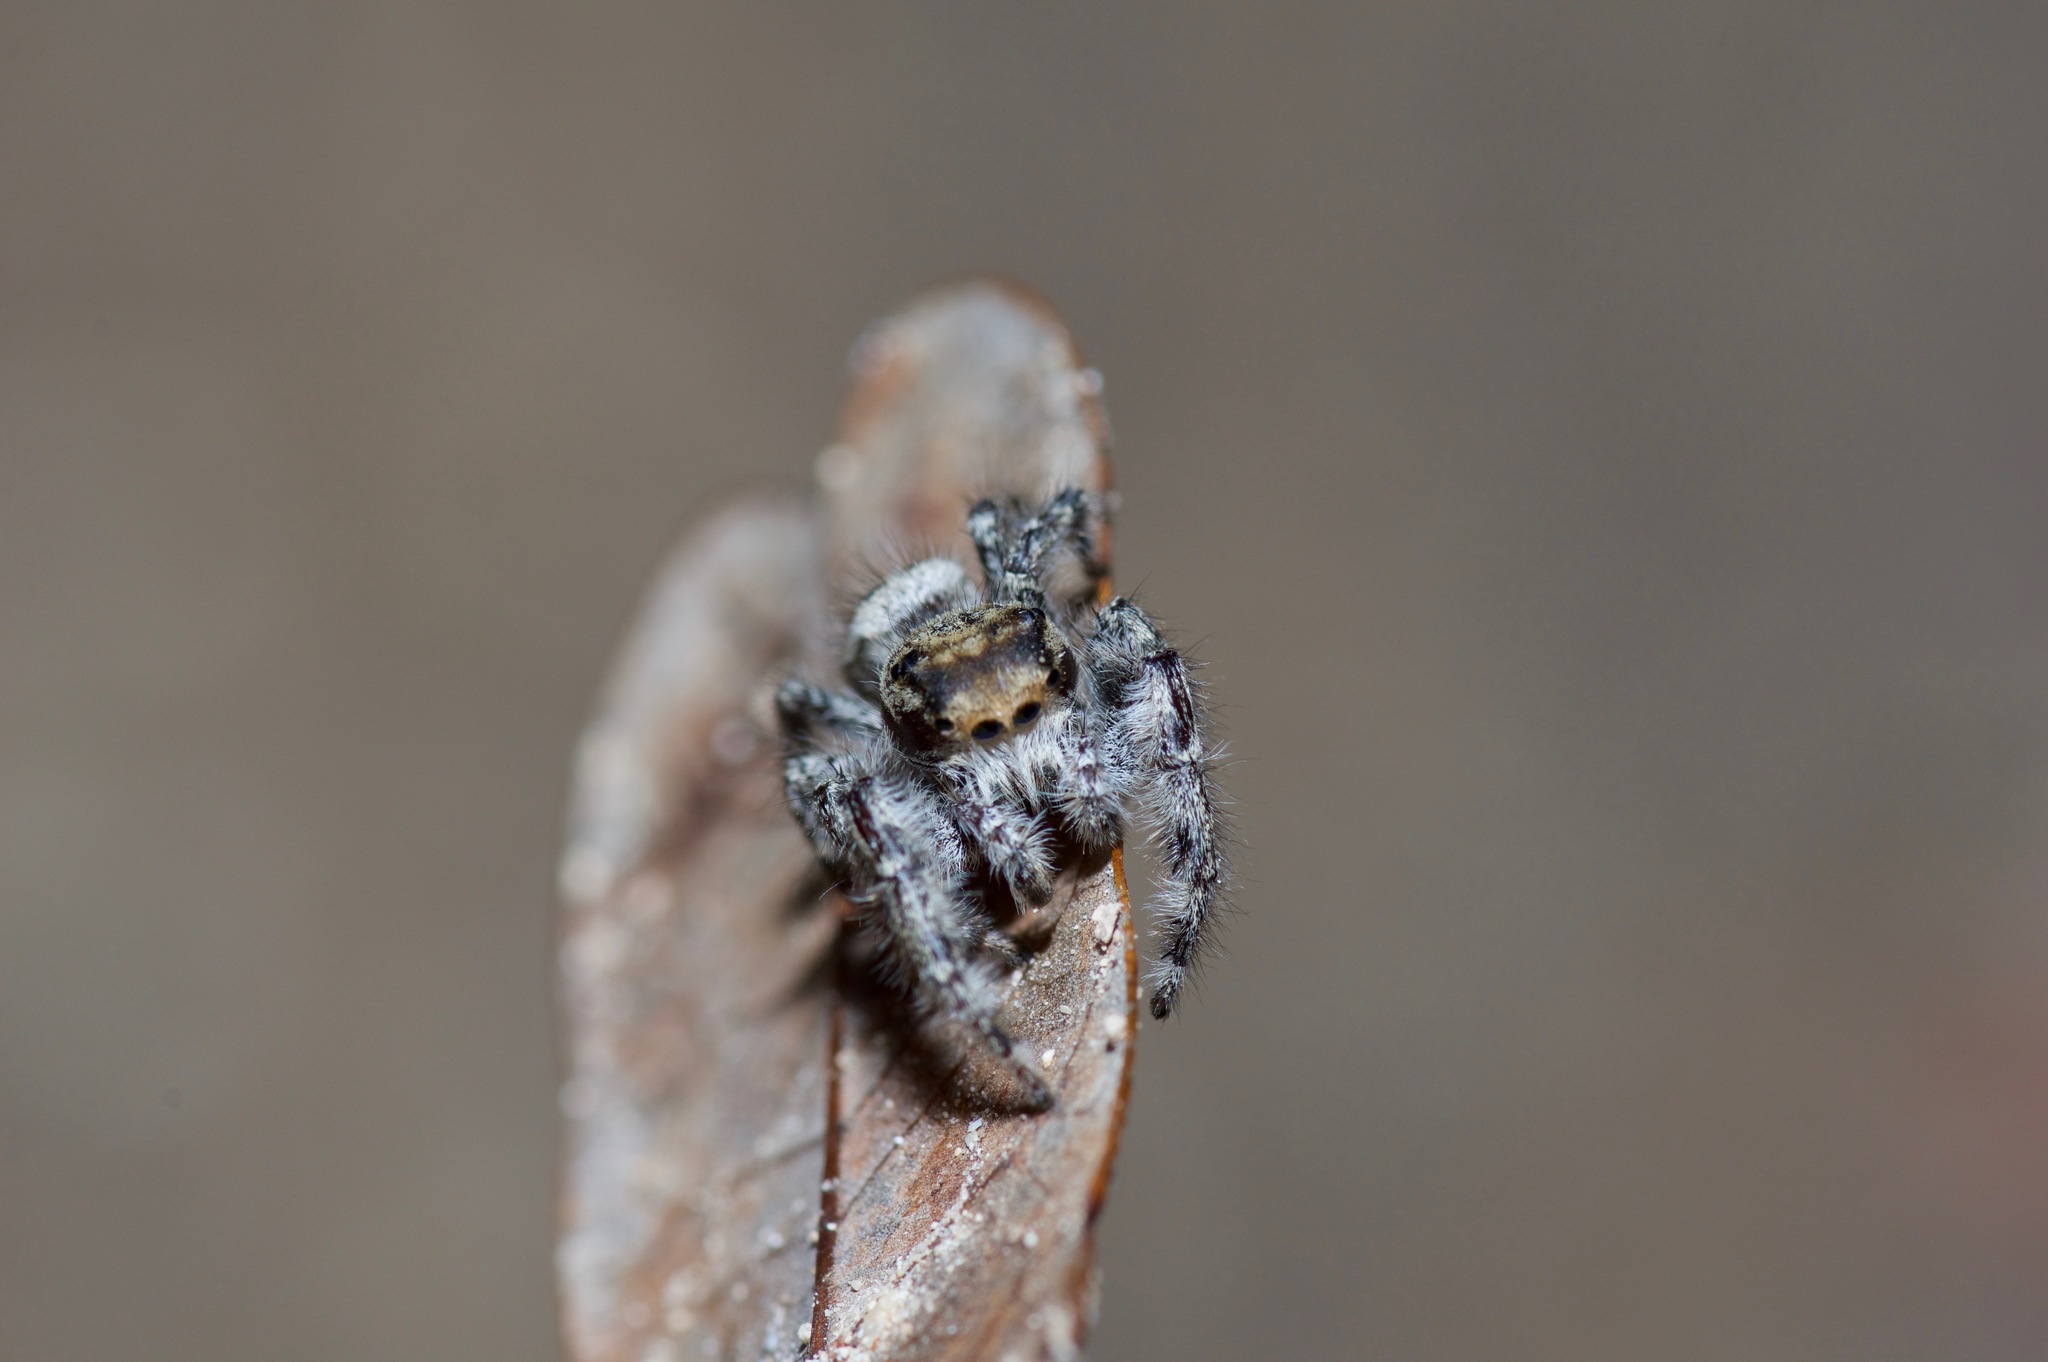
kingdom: Animalia
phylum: Arthropoda
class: Arachnida
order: Araneae
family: Salticidae
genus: Phidippus
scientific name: Phidippus pruinosus
